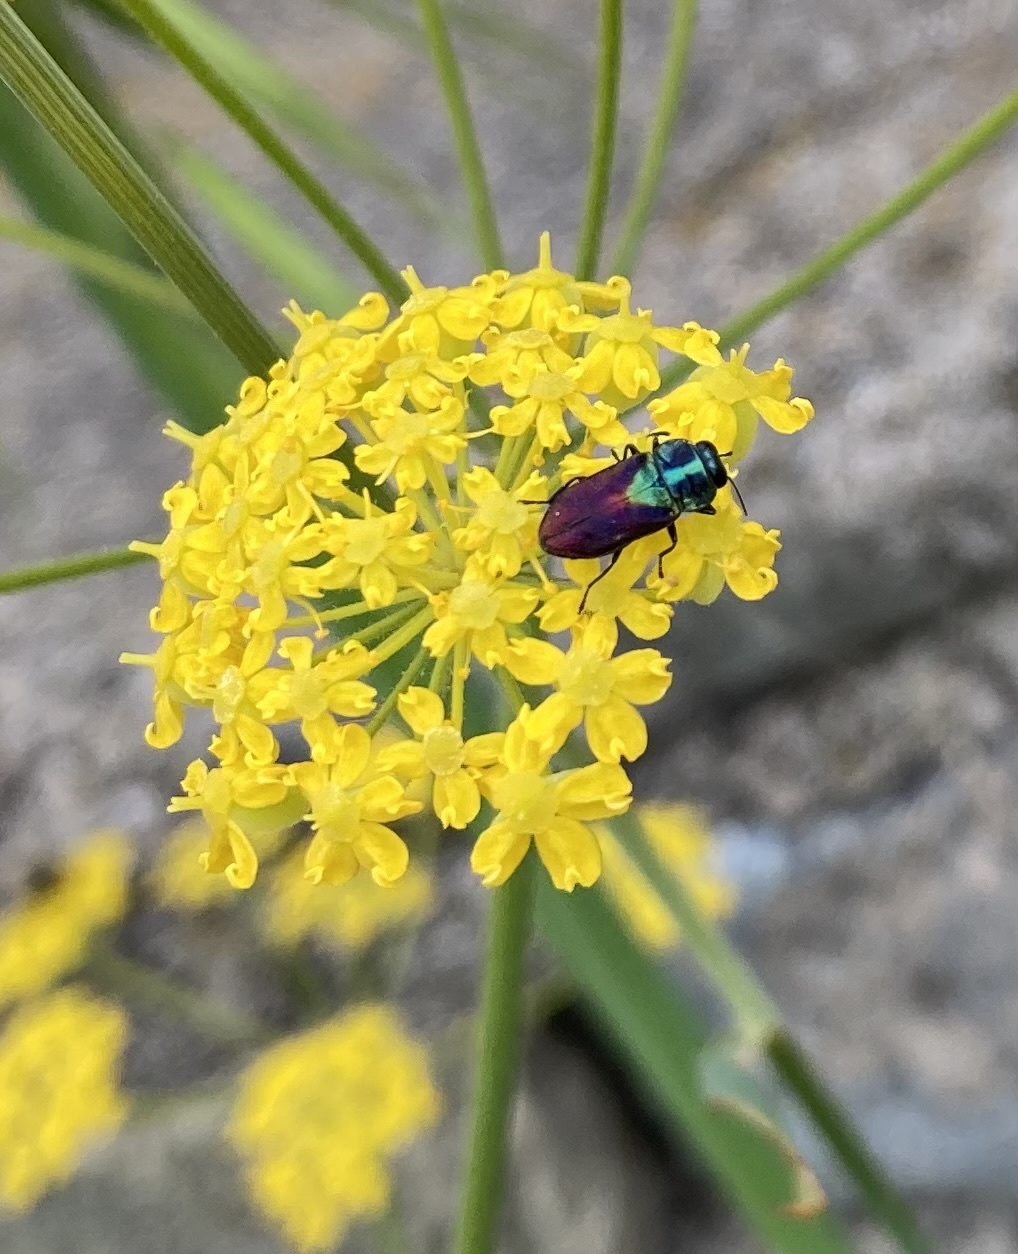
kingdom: Animalia
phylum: Arthropoda
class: Insecta
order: Coleoptera
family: Buprestidae
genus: Anthaxia
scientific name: Anthaxia bicolor
